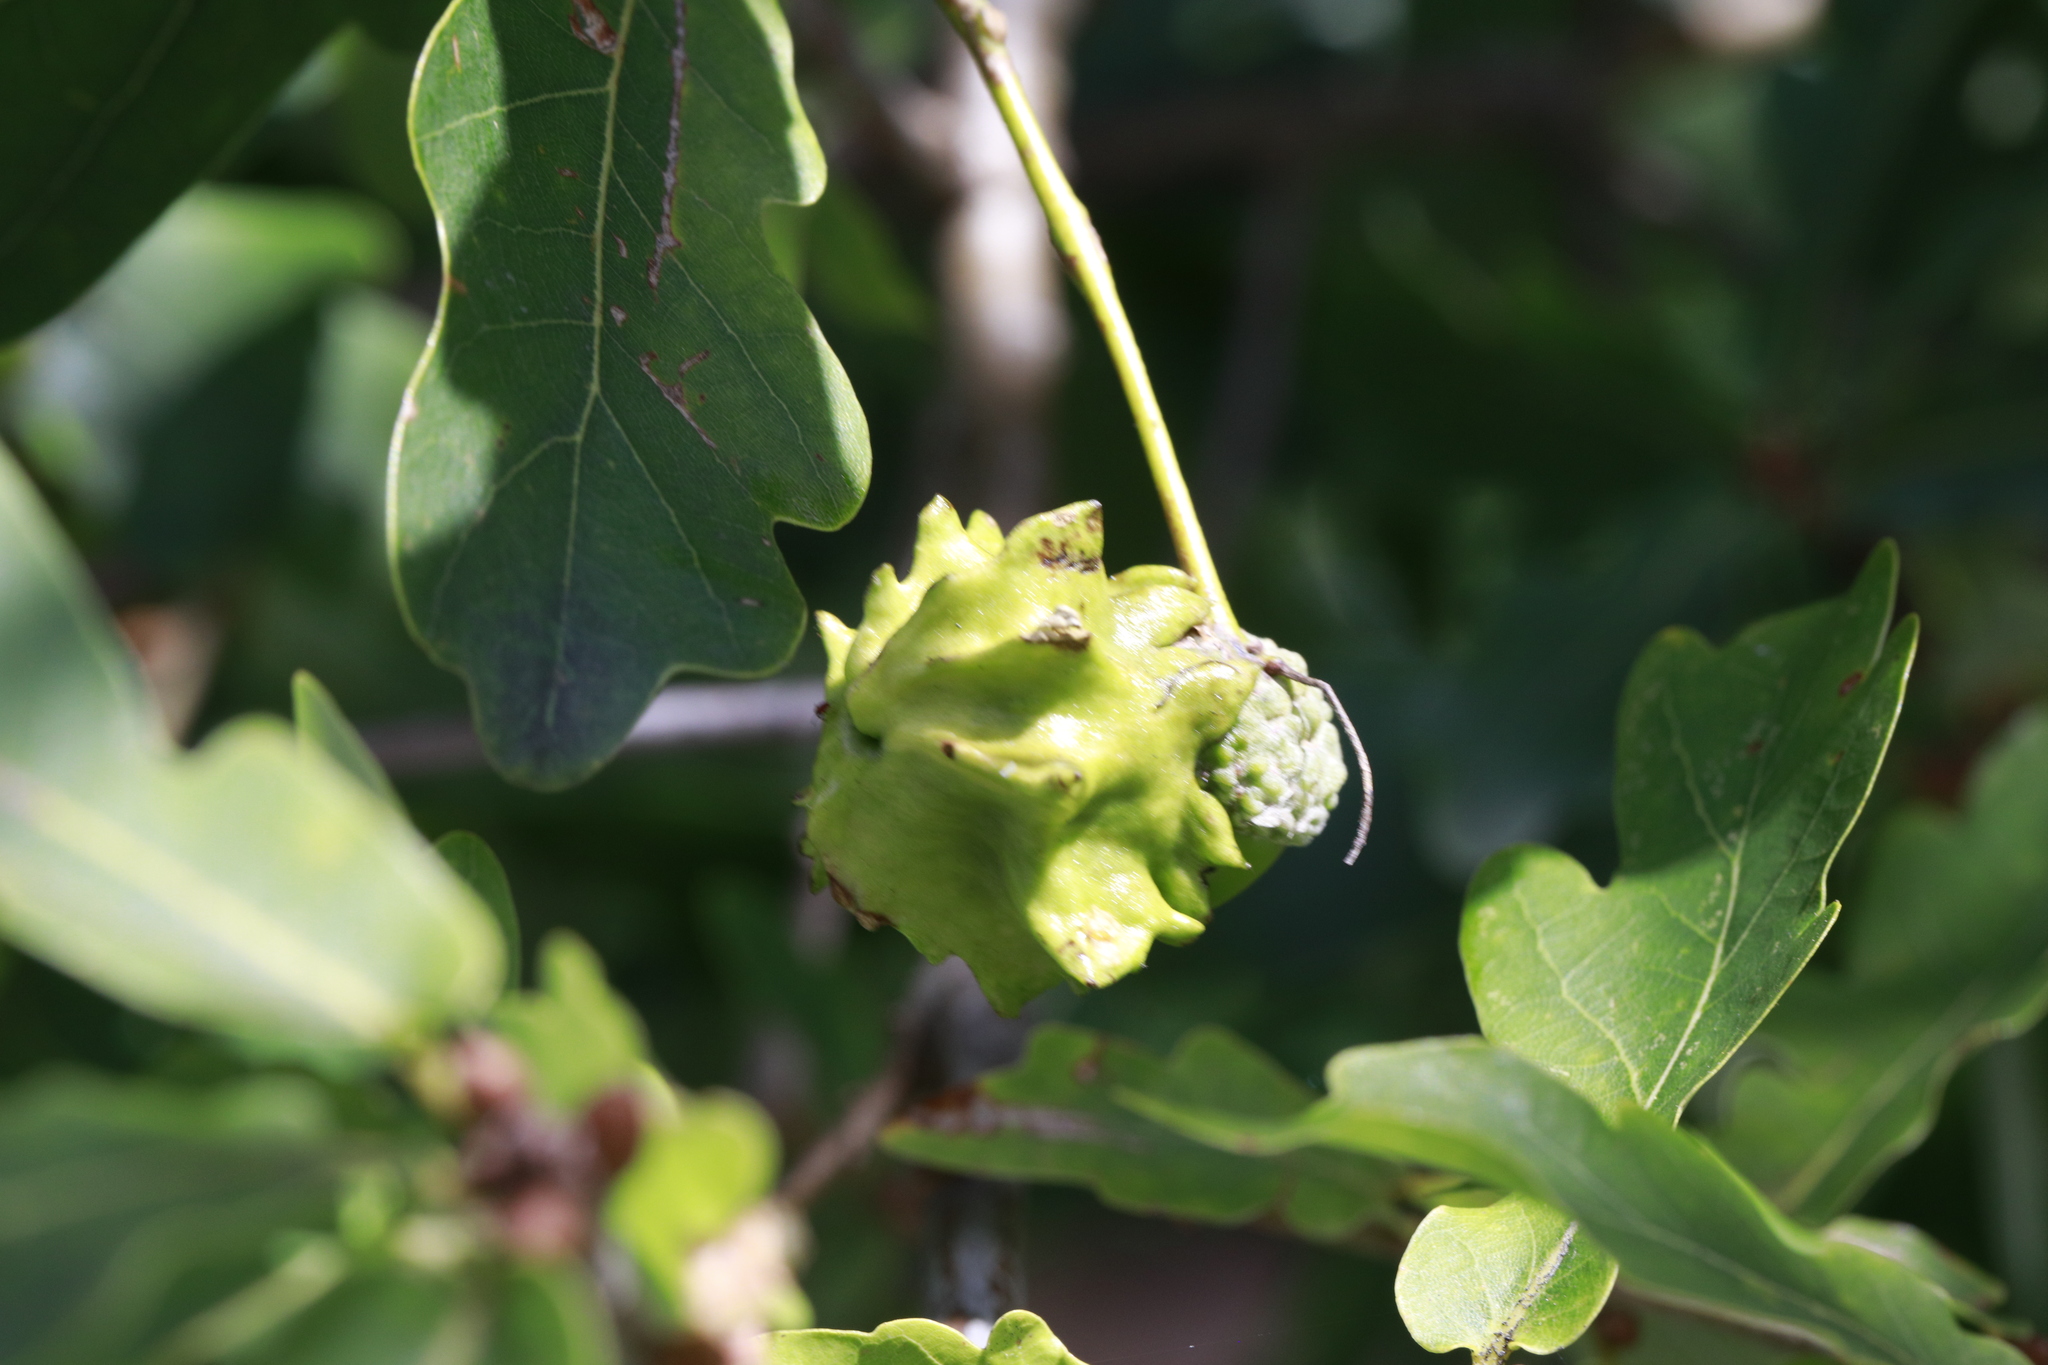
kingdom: Animalia
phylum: Arthropoda
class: Insecta
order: Hymenoptera
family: Cynipidae
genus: Andricus
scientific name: Andricus quercuscalicis
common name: Knopper gall
